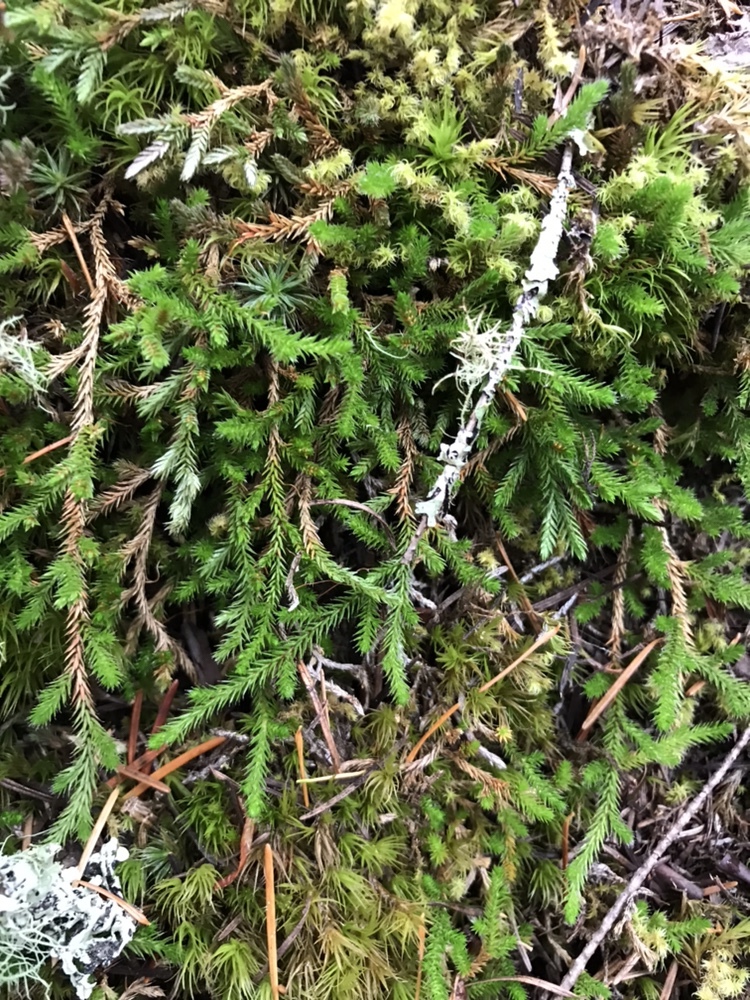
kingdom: Plantae
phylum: Tracheophyta
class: Lycopodiopsida
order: Selaginellales
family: Selaginellaceae
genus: Selaginella
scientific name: Selaginella wallacei
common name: Wallace's selaginella
